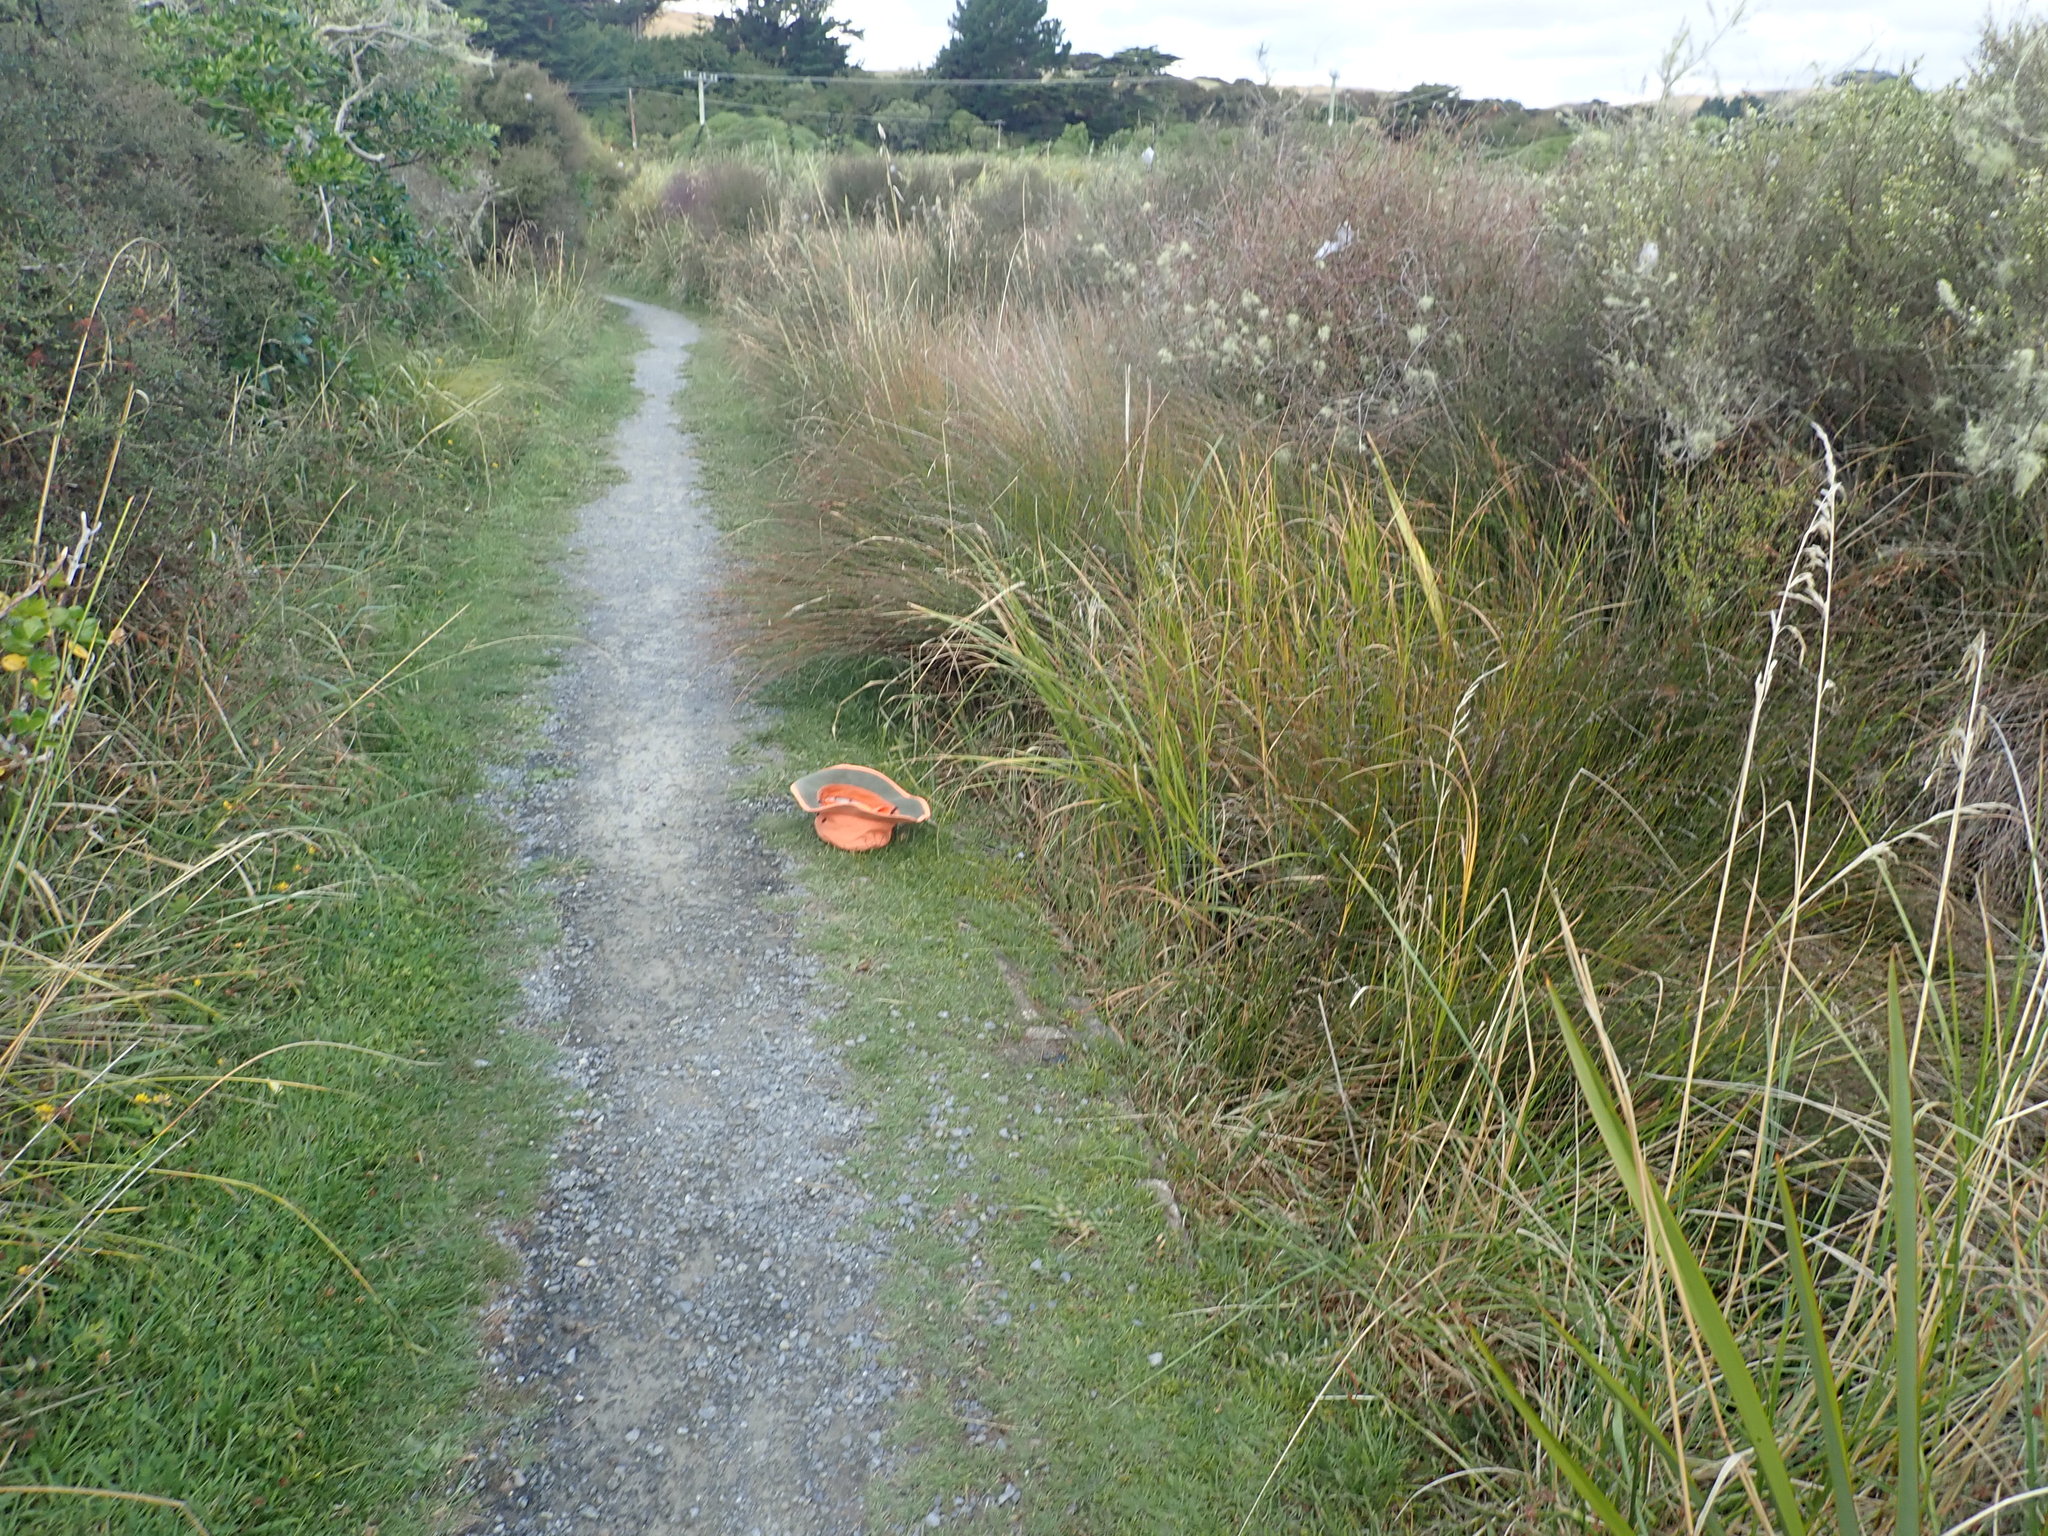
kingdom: Plantae
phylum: Tracheophyta
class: Magnoliopsida
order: Lamiales
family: Plantaginaceae
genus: Plantago
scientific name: Plantago coronopus
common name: Buck's-horn plantain
